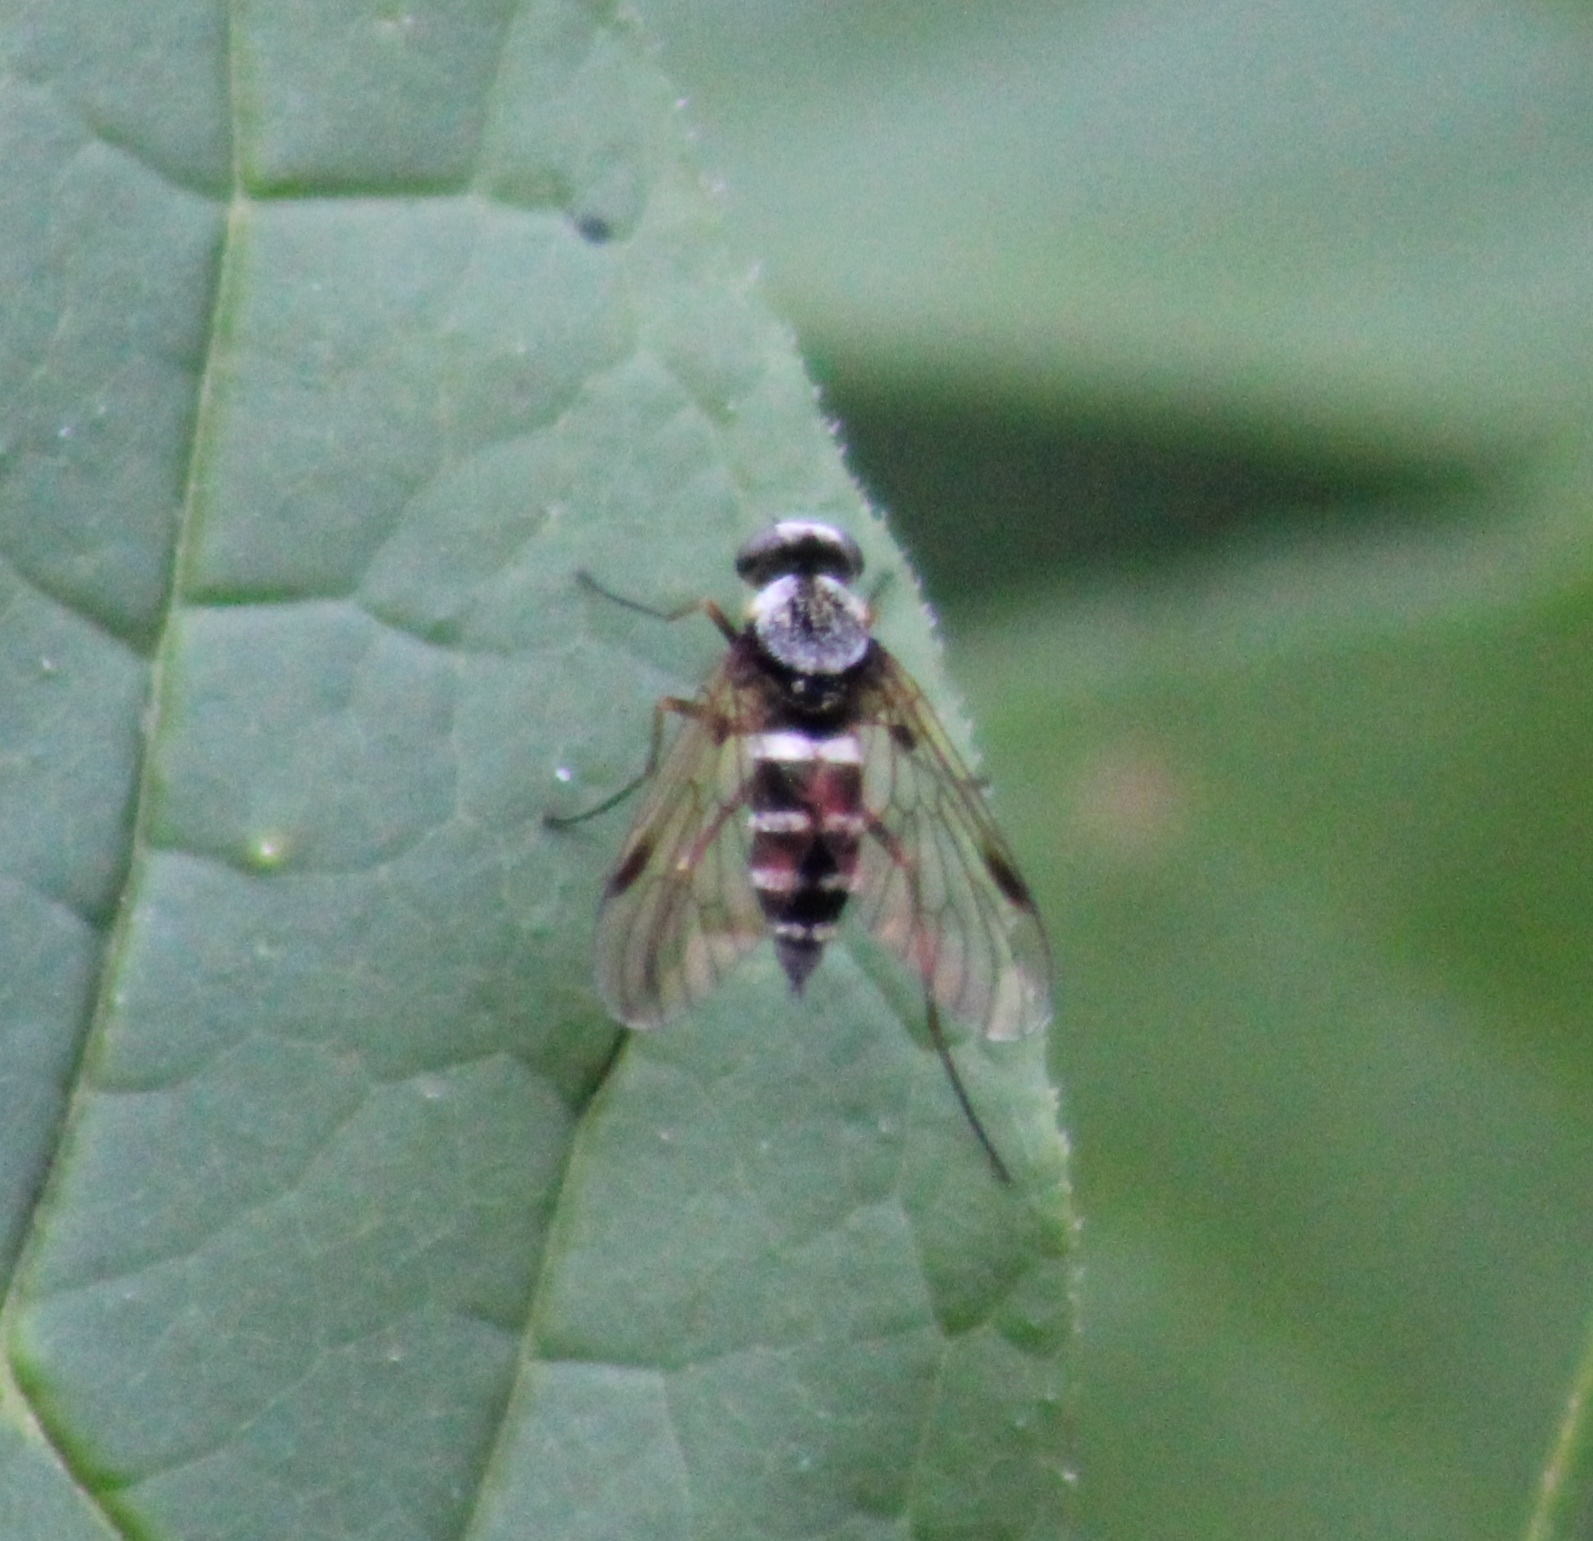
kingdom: Animalia
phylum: Arthropoda
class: Insecta
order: Diptera
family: Rhagionidae
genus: Chrysopilus
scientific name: Chrysopilus fasciatus
